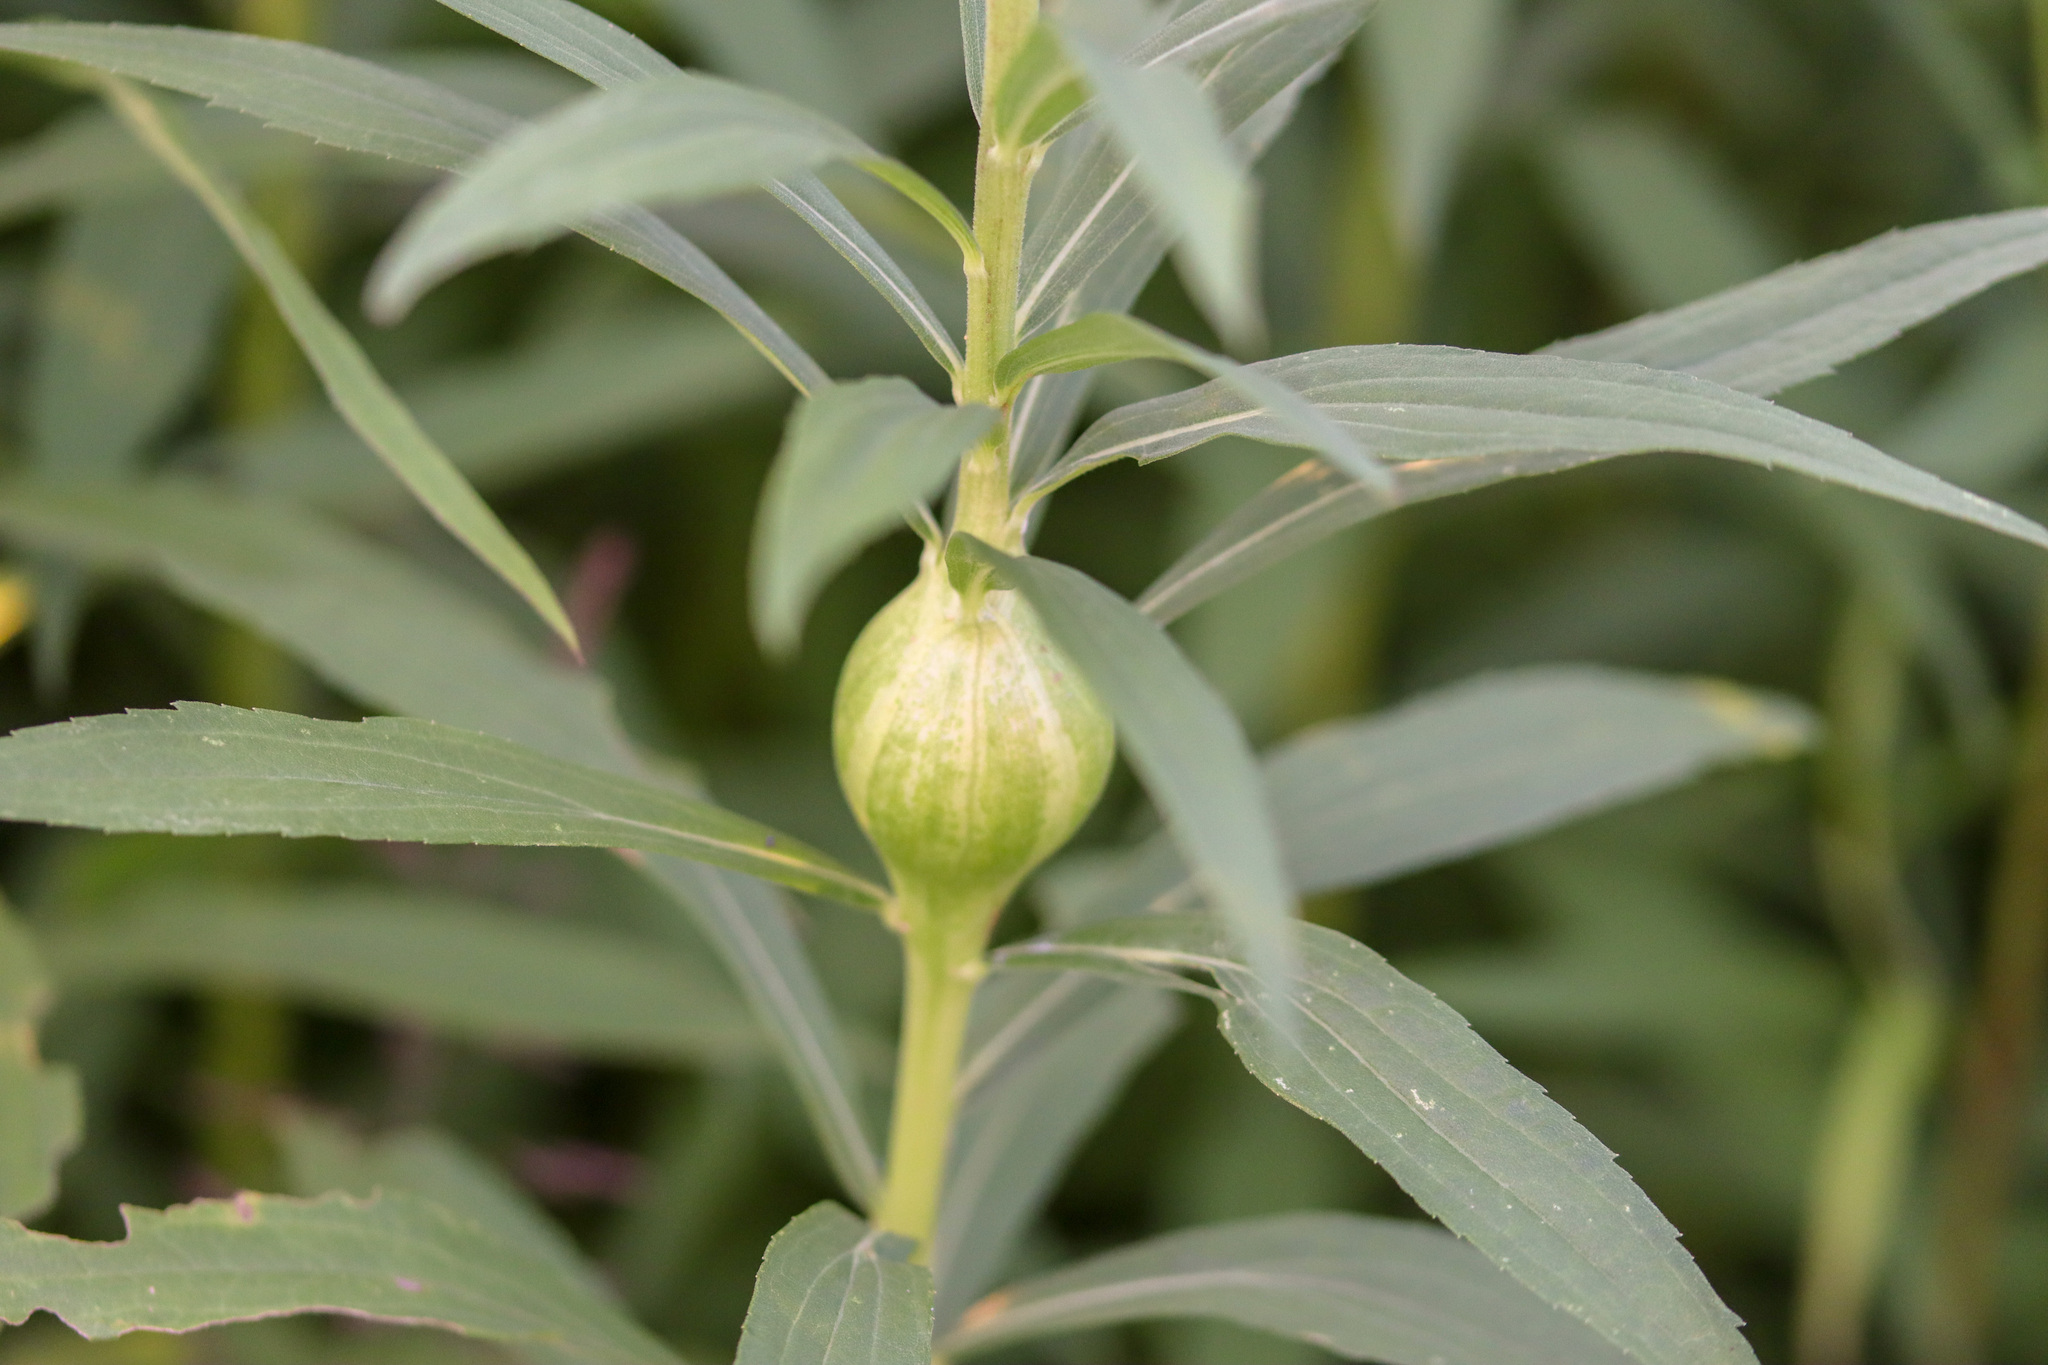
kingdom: Animalia
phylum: Arthropoda
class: Insecta
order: Diptera
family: Tephritidae
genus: Eurosta
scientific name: Eurosta solidaginis
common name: Goldenrod gall fly
